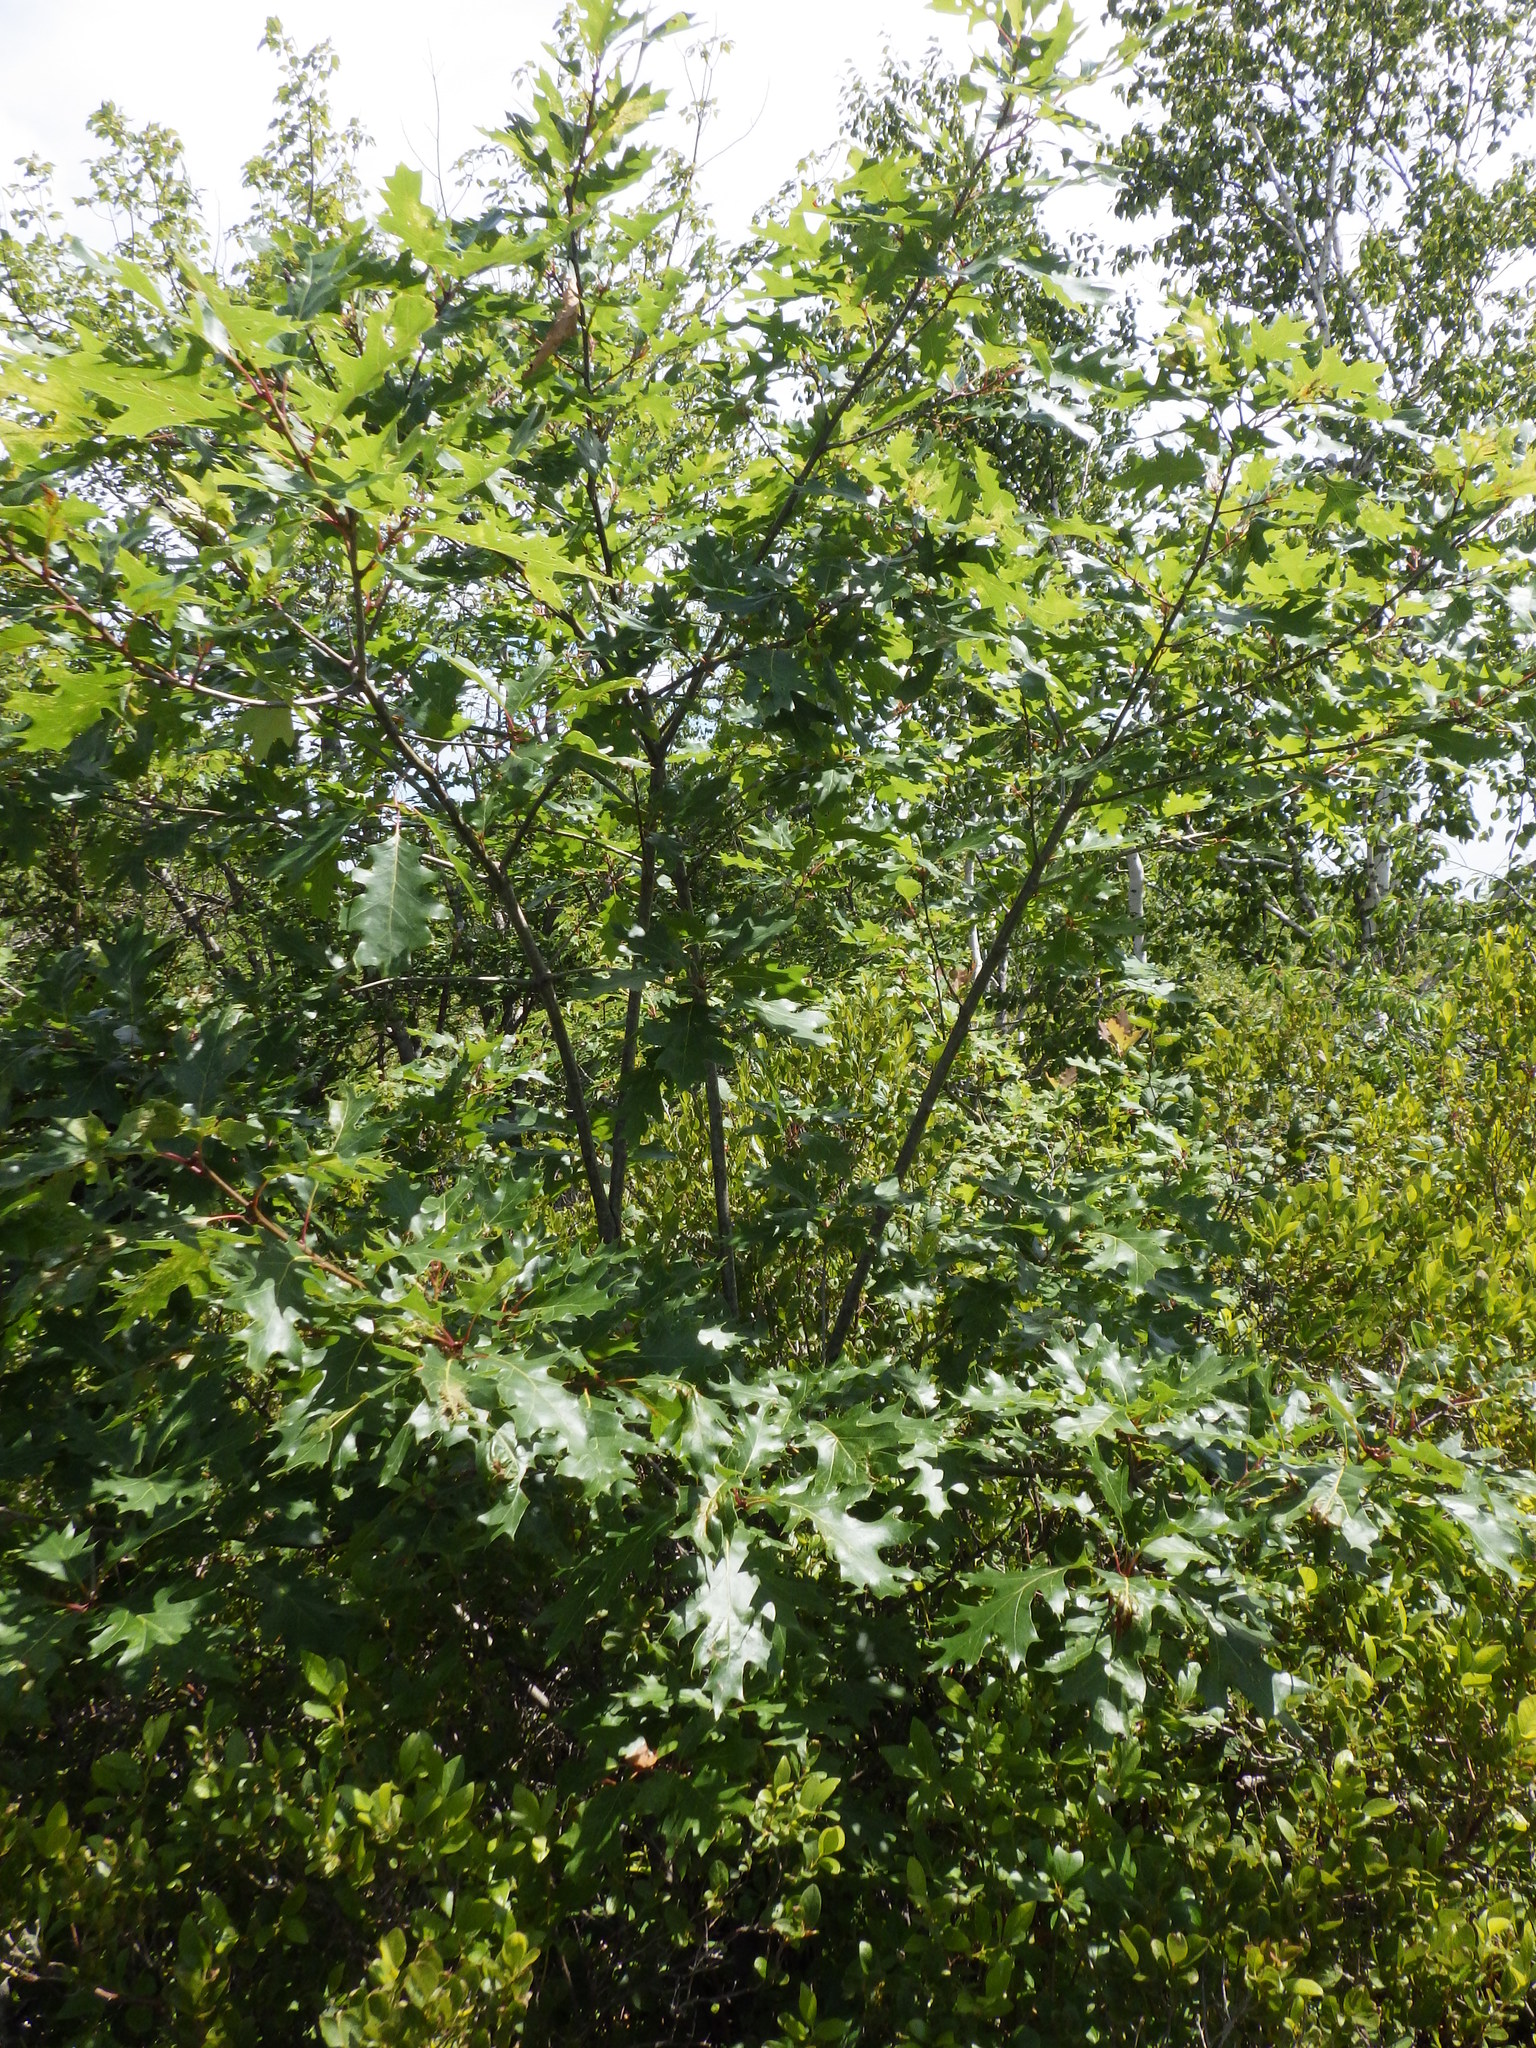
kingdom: Plantae
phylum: Tracheophyta
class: Magnoliopsida
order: Fagales
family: Fagaceae
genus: Quercus
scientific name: Quercus rubra
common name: Red oak
